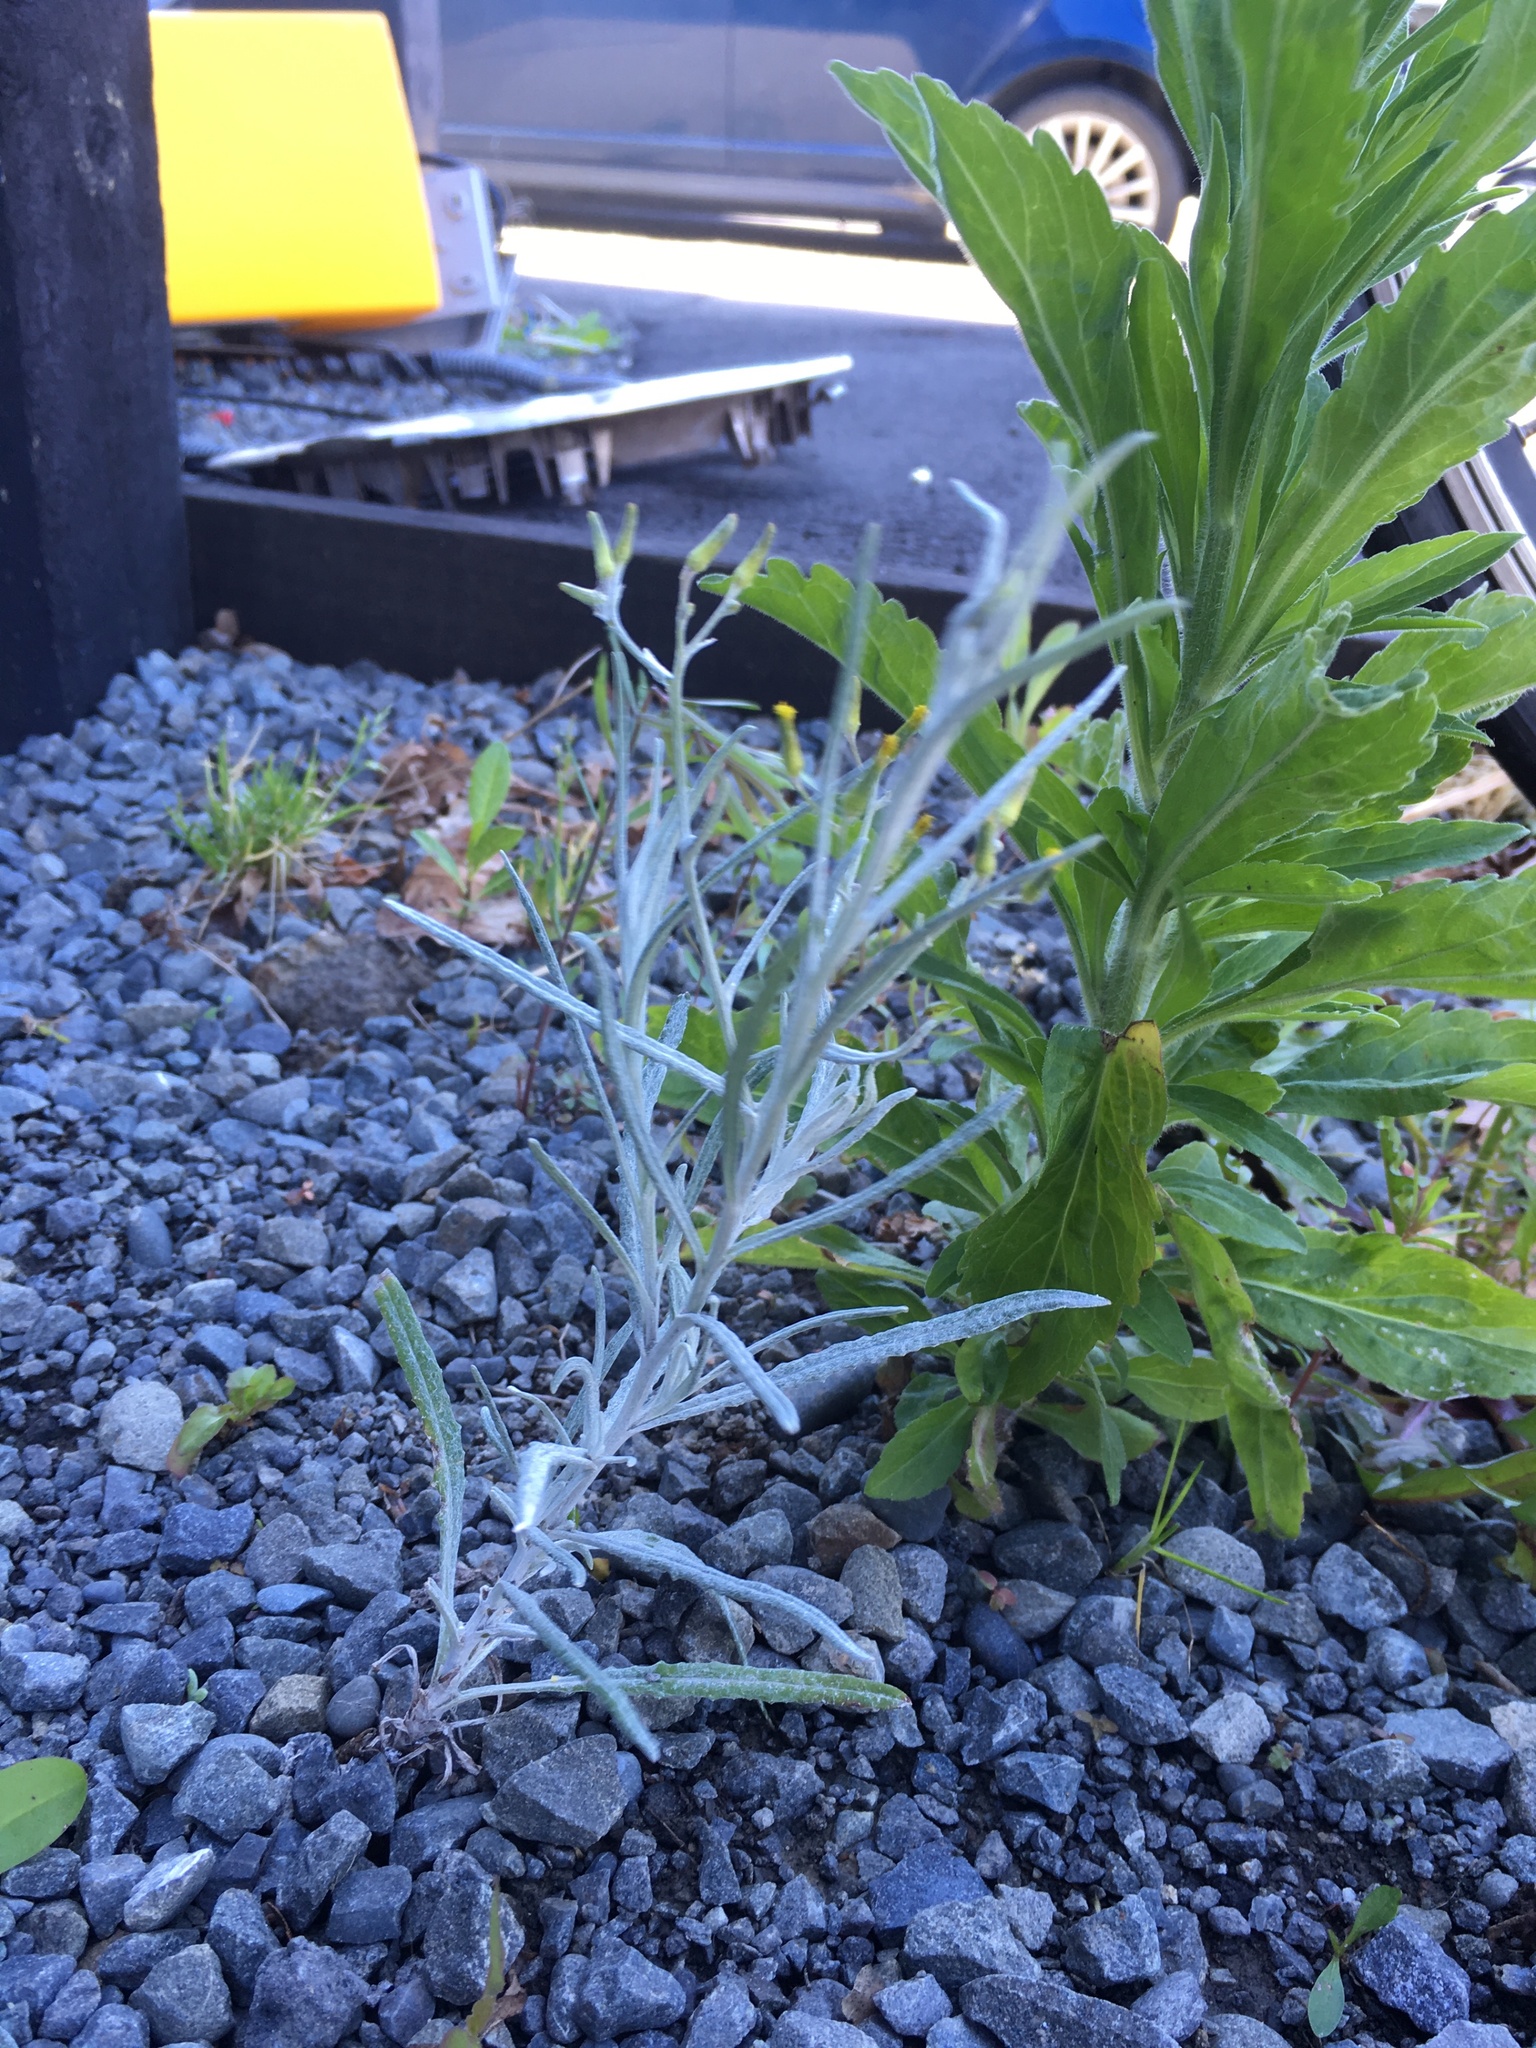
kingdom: Plantae
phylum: Tracheophyta
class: Magnoliopsida
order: Asterales
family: Asteraceae
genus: Senecio
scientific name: Senecio quadridentatus
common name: Cotton fireweed
